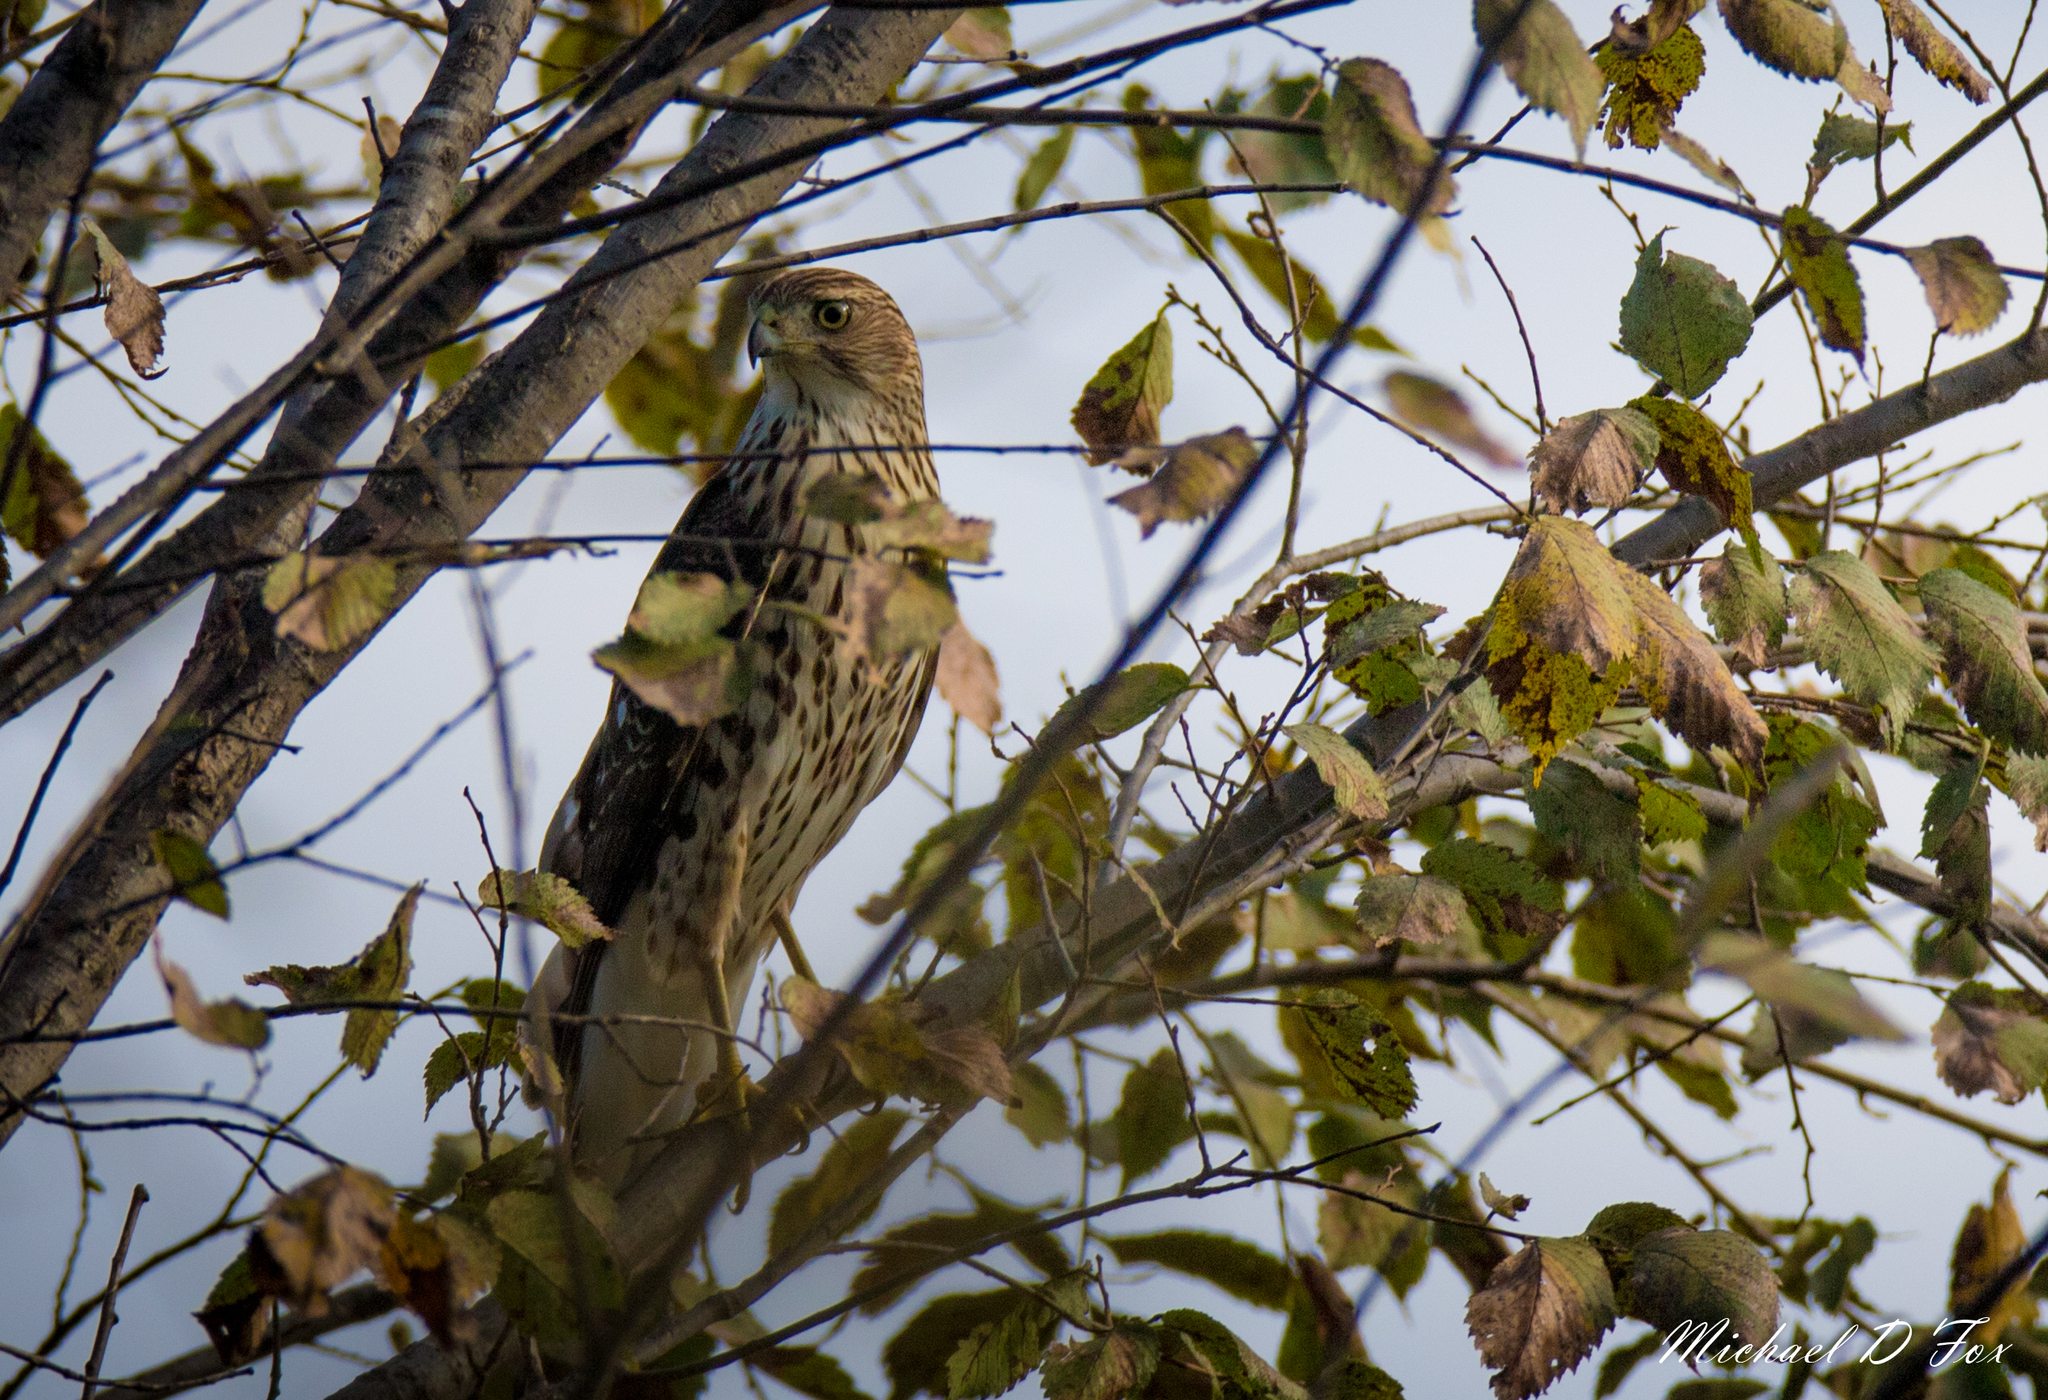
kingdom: Animalia
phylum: Chordata
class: Aves
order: Accipitriformes
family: Accipitridae
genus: Accipiter
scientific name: Accipiter cooperii
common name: Cooper's hawk
